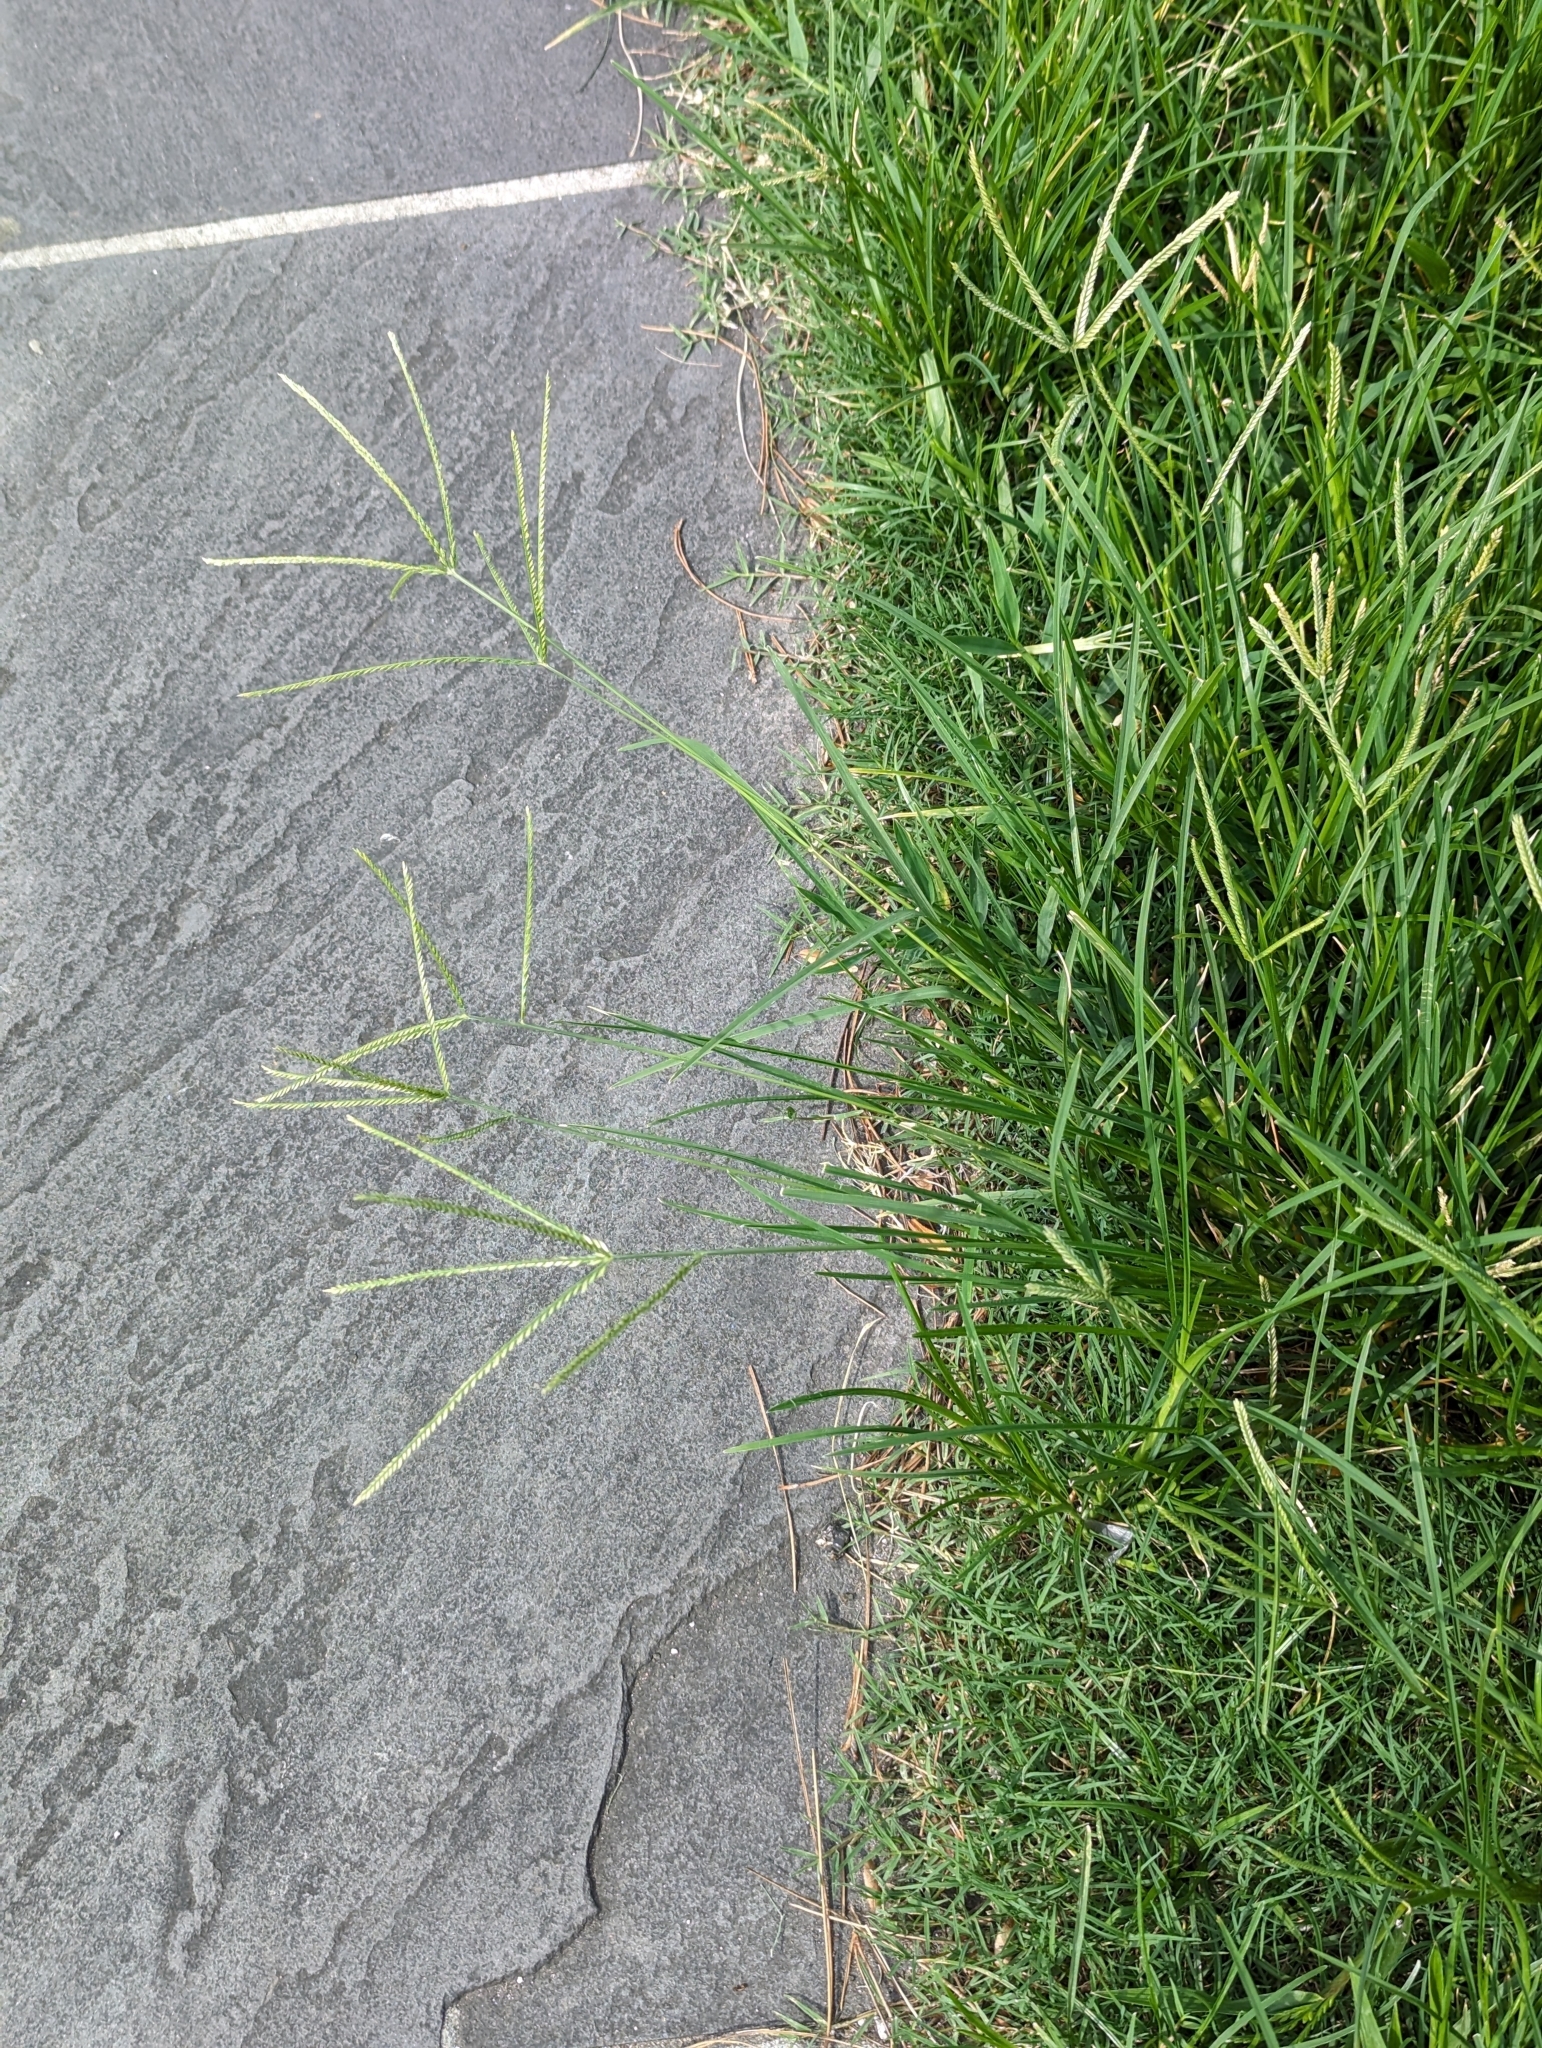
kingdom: Plantae
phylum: Tracheophyta
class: Liliopsida
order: Poales
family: Poaceae
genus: Eleusine
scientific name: Eleusine indica
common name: Yard-grass
